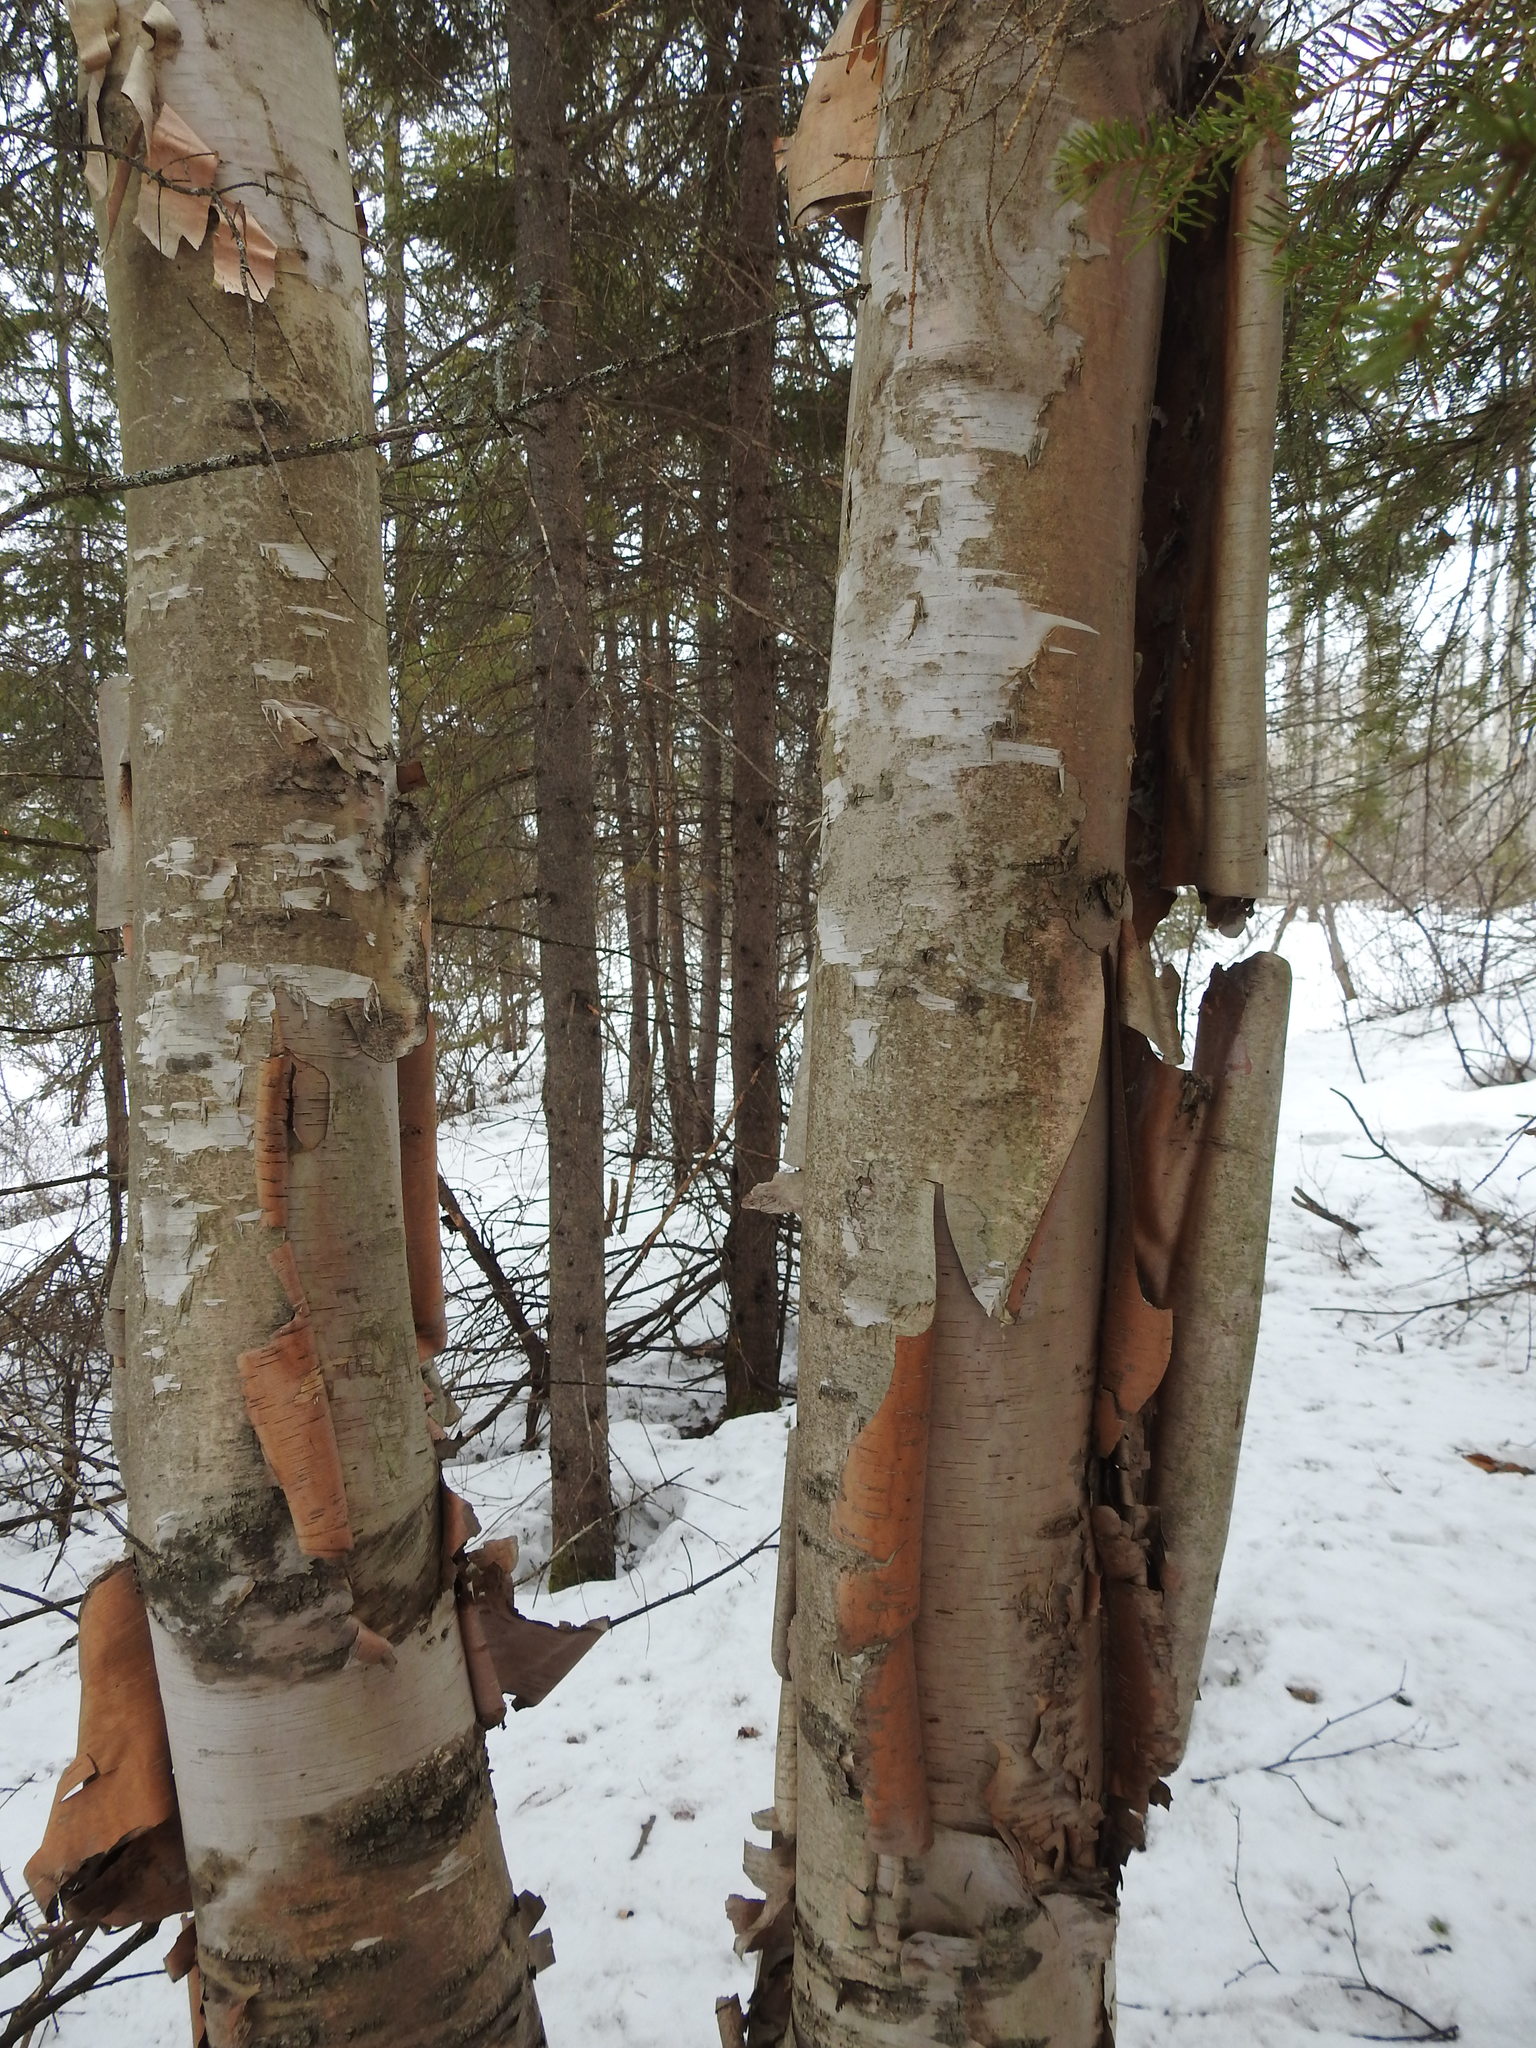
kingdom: Plantae
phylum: Tracheophyta
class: Magnoliopsida
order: Fagales
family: Betulaceae
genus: Betula
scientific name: Betula papyrifera
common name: Paper birch
